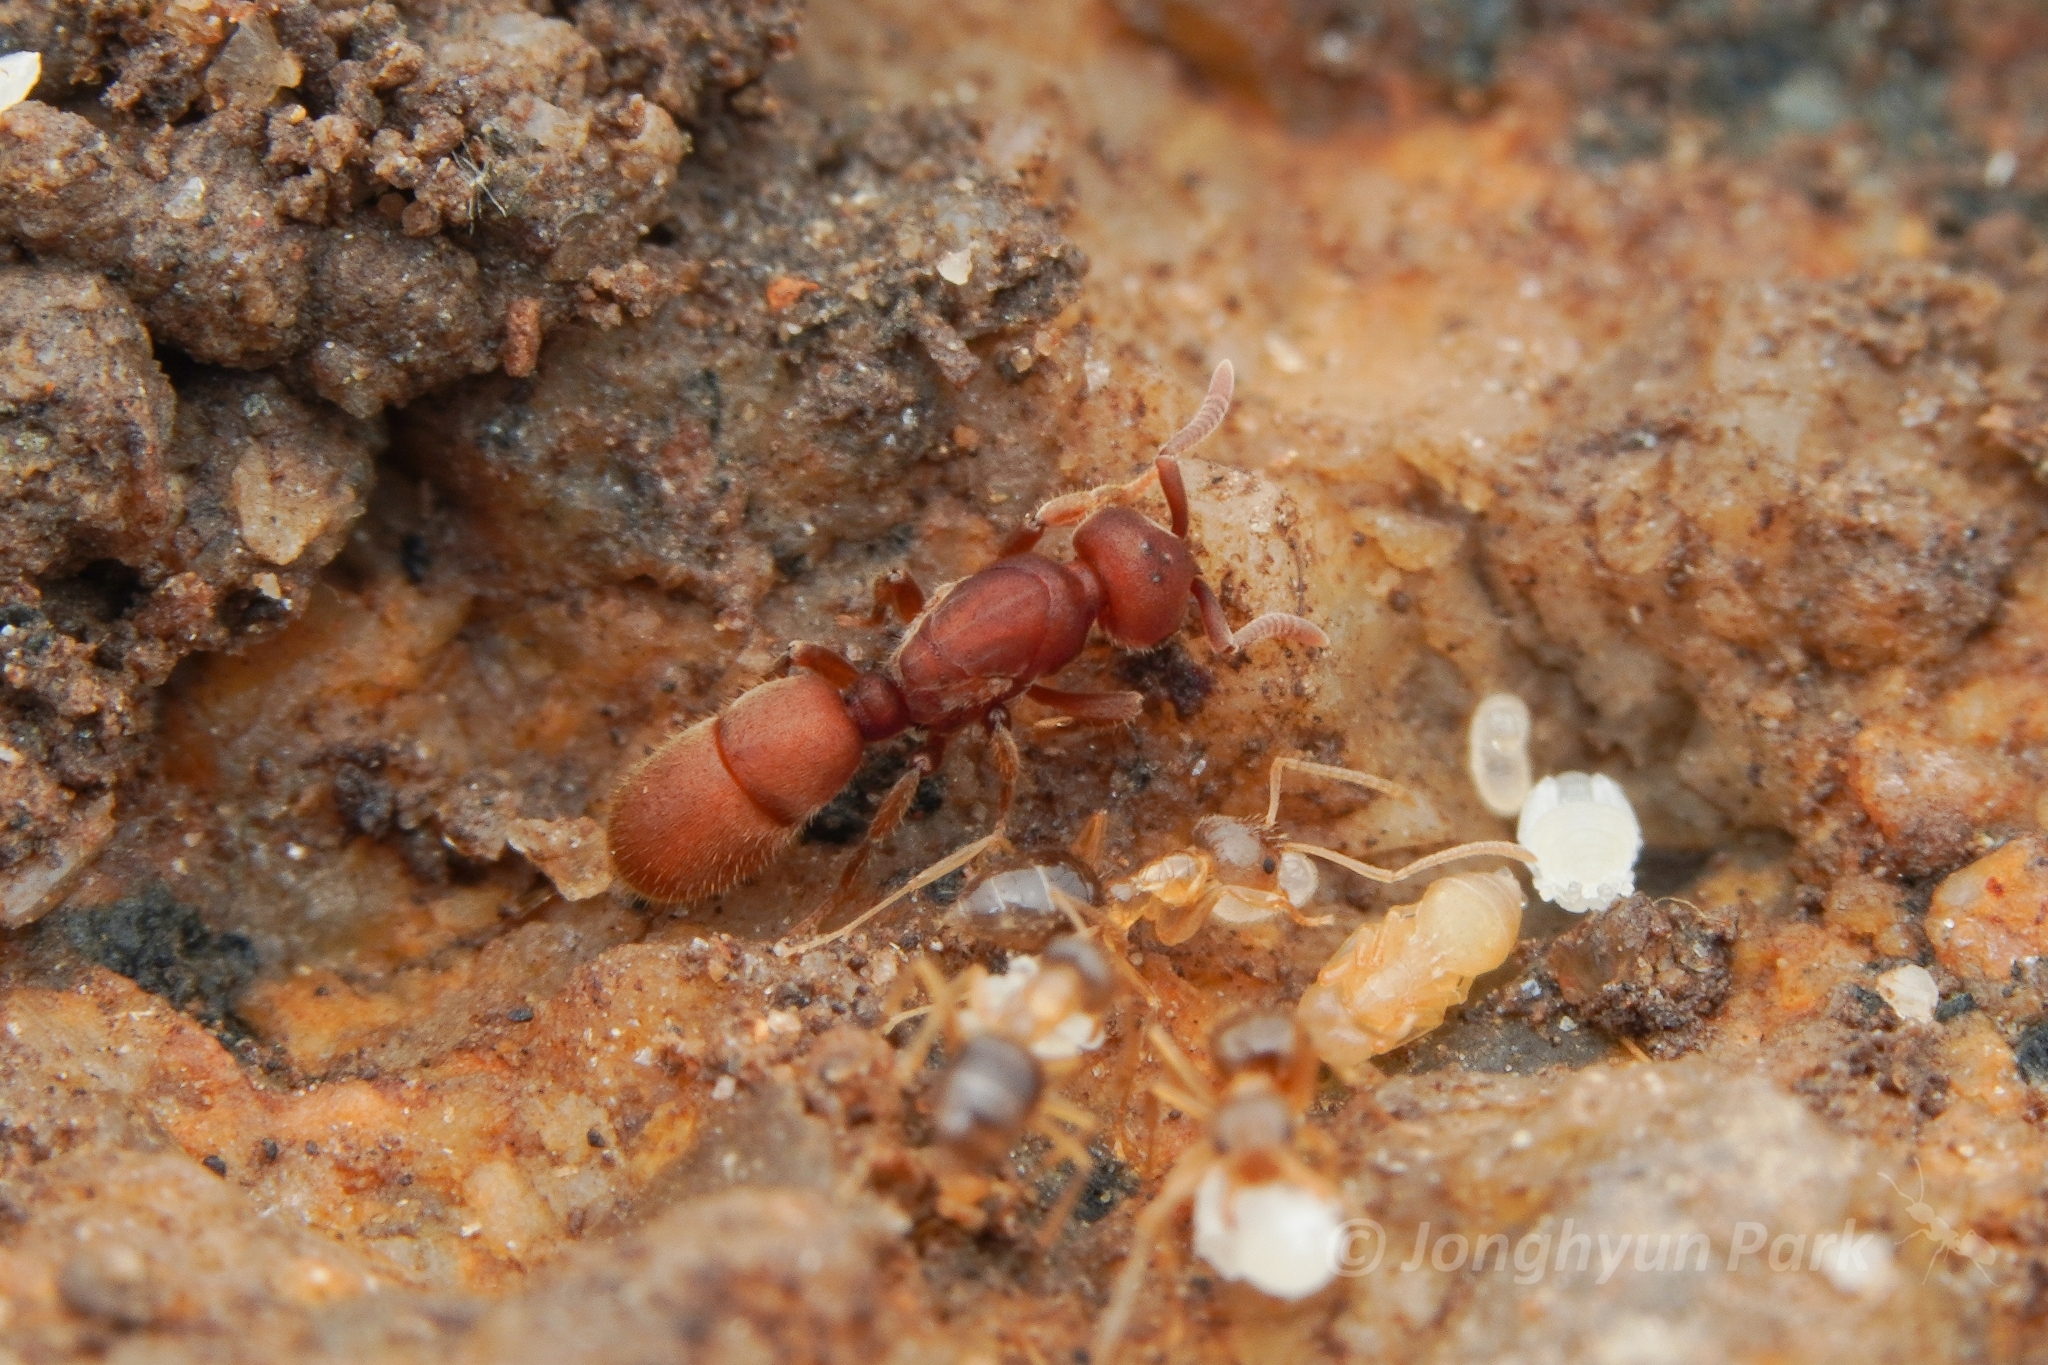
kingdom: Animalia
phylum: Arthropoda
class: Insecta
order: Hymenoptera
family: Formicidae
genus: Proceratium
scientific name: Proceratium itoi
